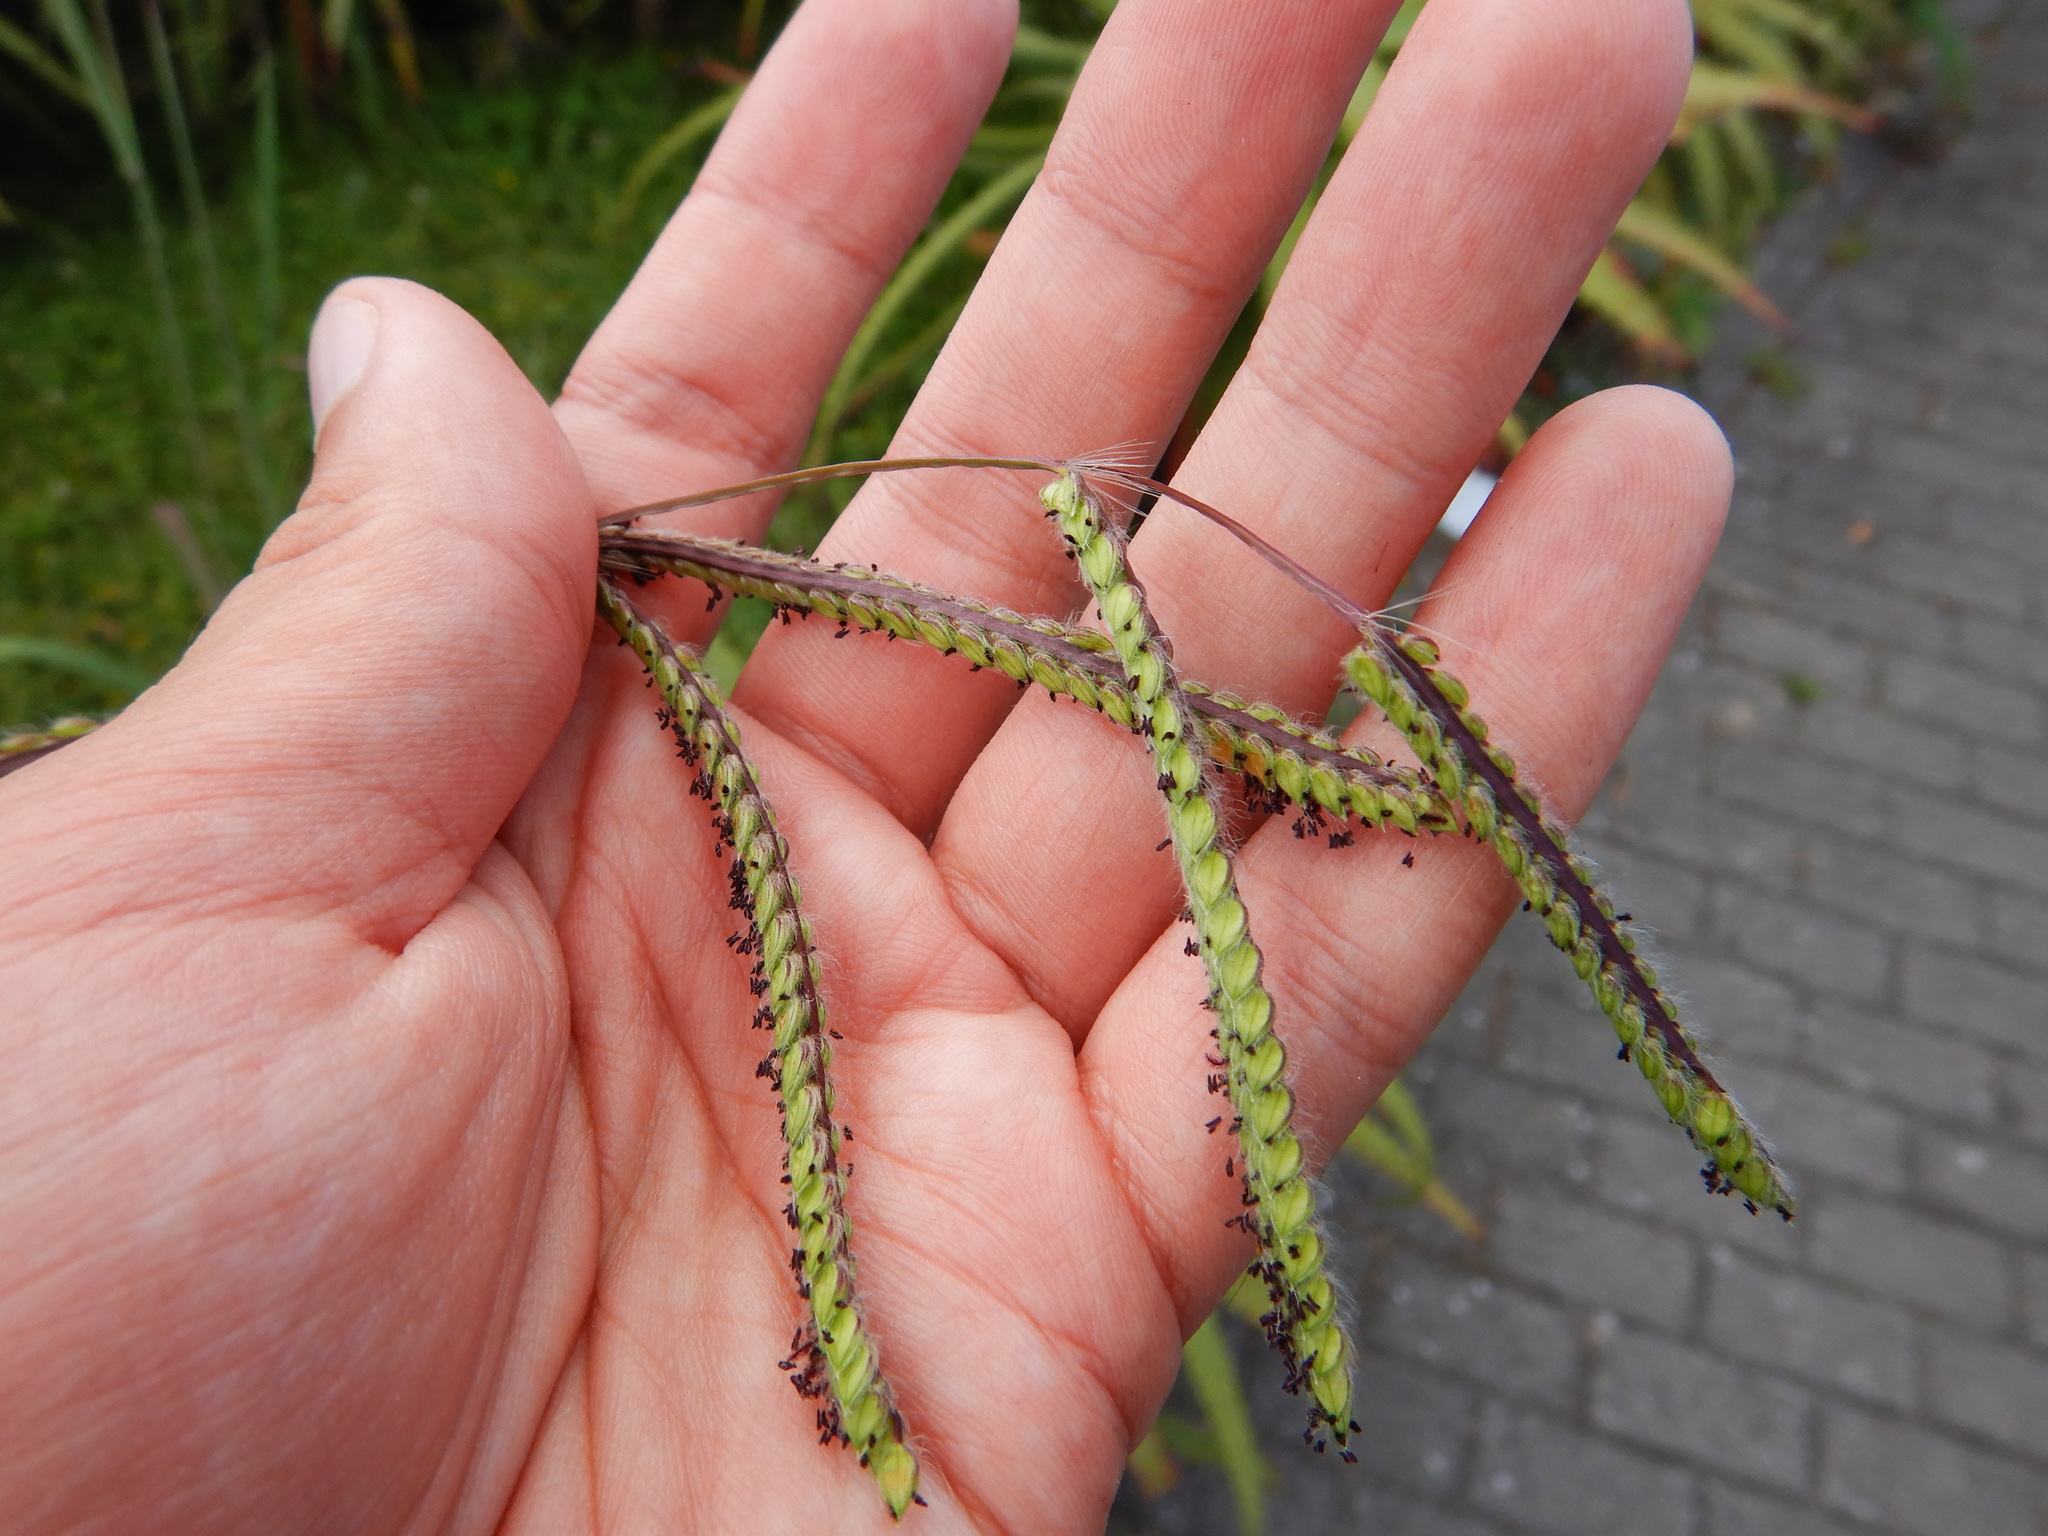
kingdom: Plantae
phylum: Tracheophyta
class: Liliopsida
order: Poales
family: Poaceae
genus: Paspalum
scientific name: Paspalum dilatatum
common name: Dallisgrass
